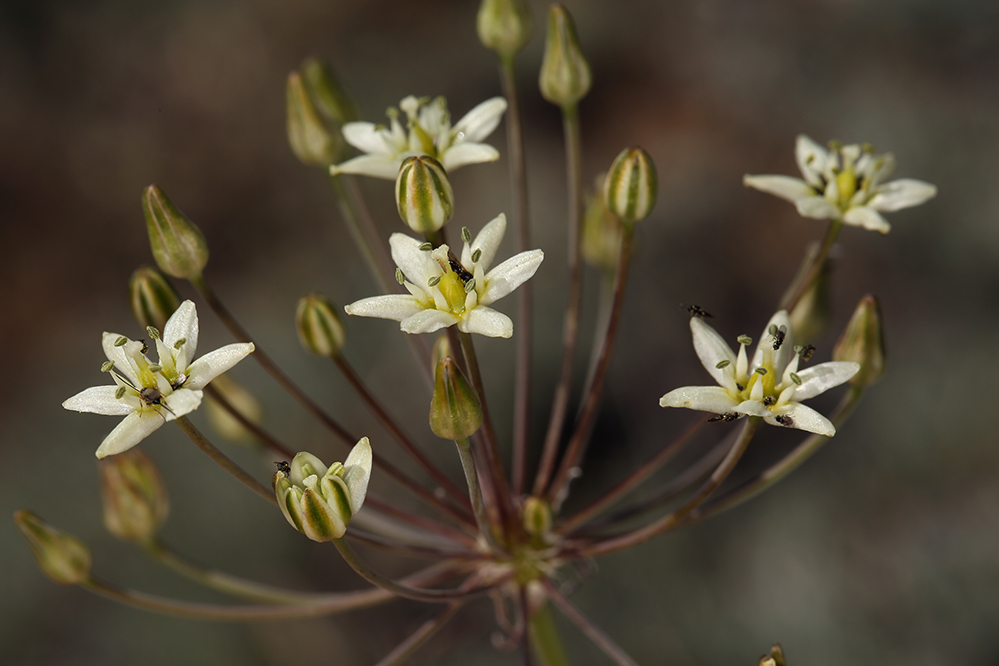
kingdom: Plantae
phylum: Tracheophyta
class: Liliopsida
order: Asparagales
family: Asparagaceae
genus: Muilla
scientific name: Muilla maritima
